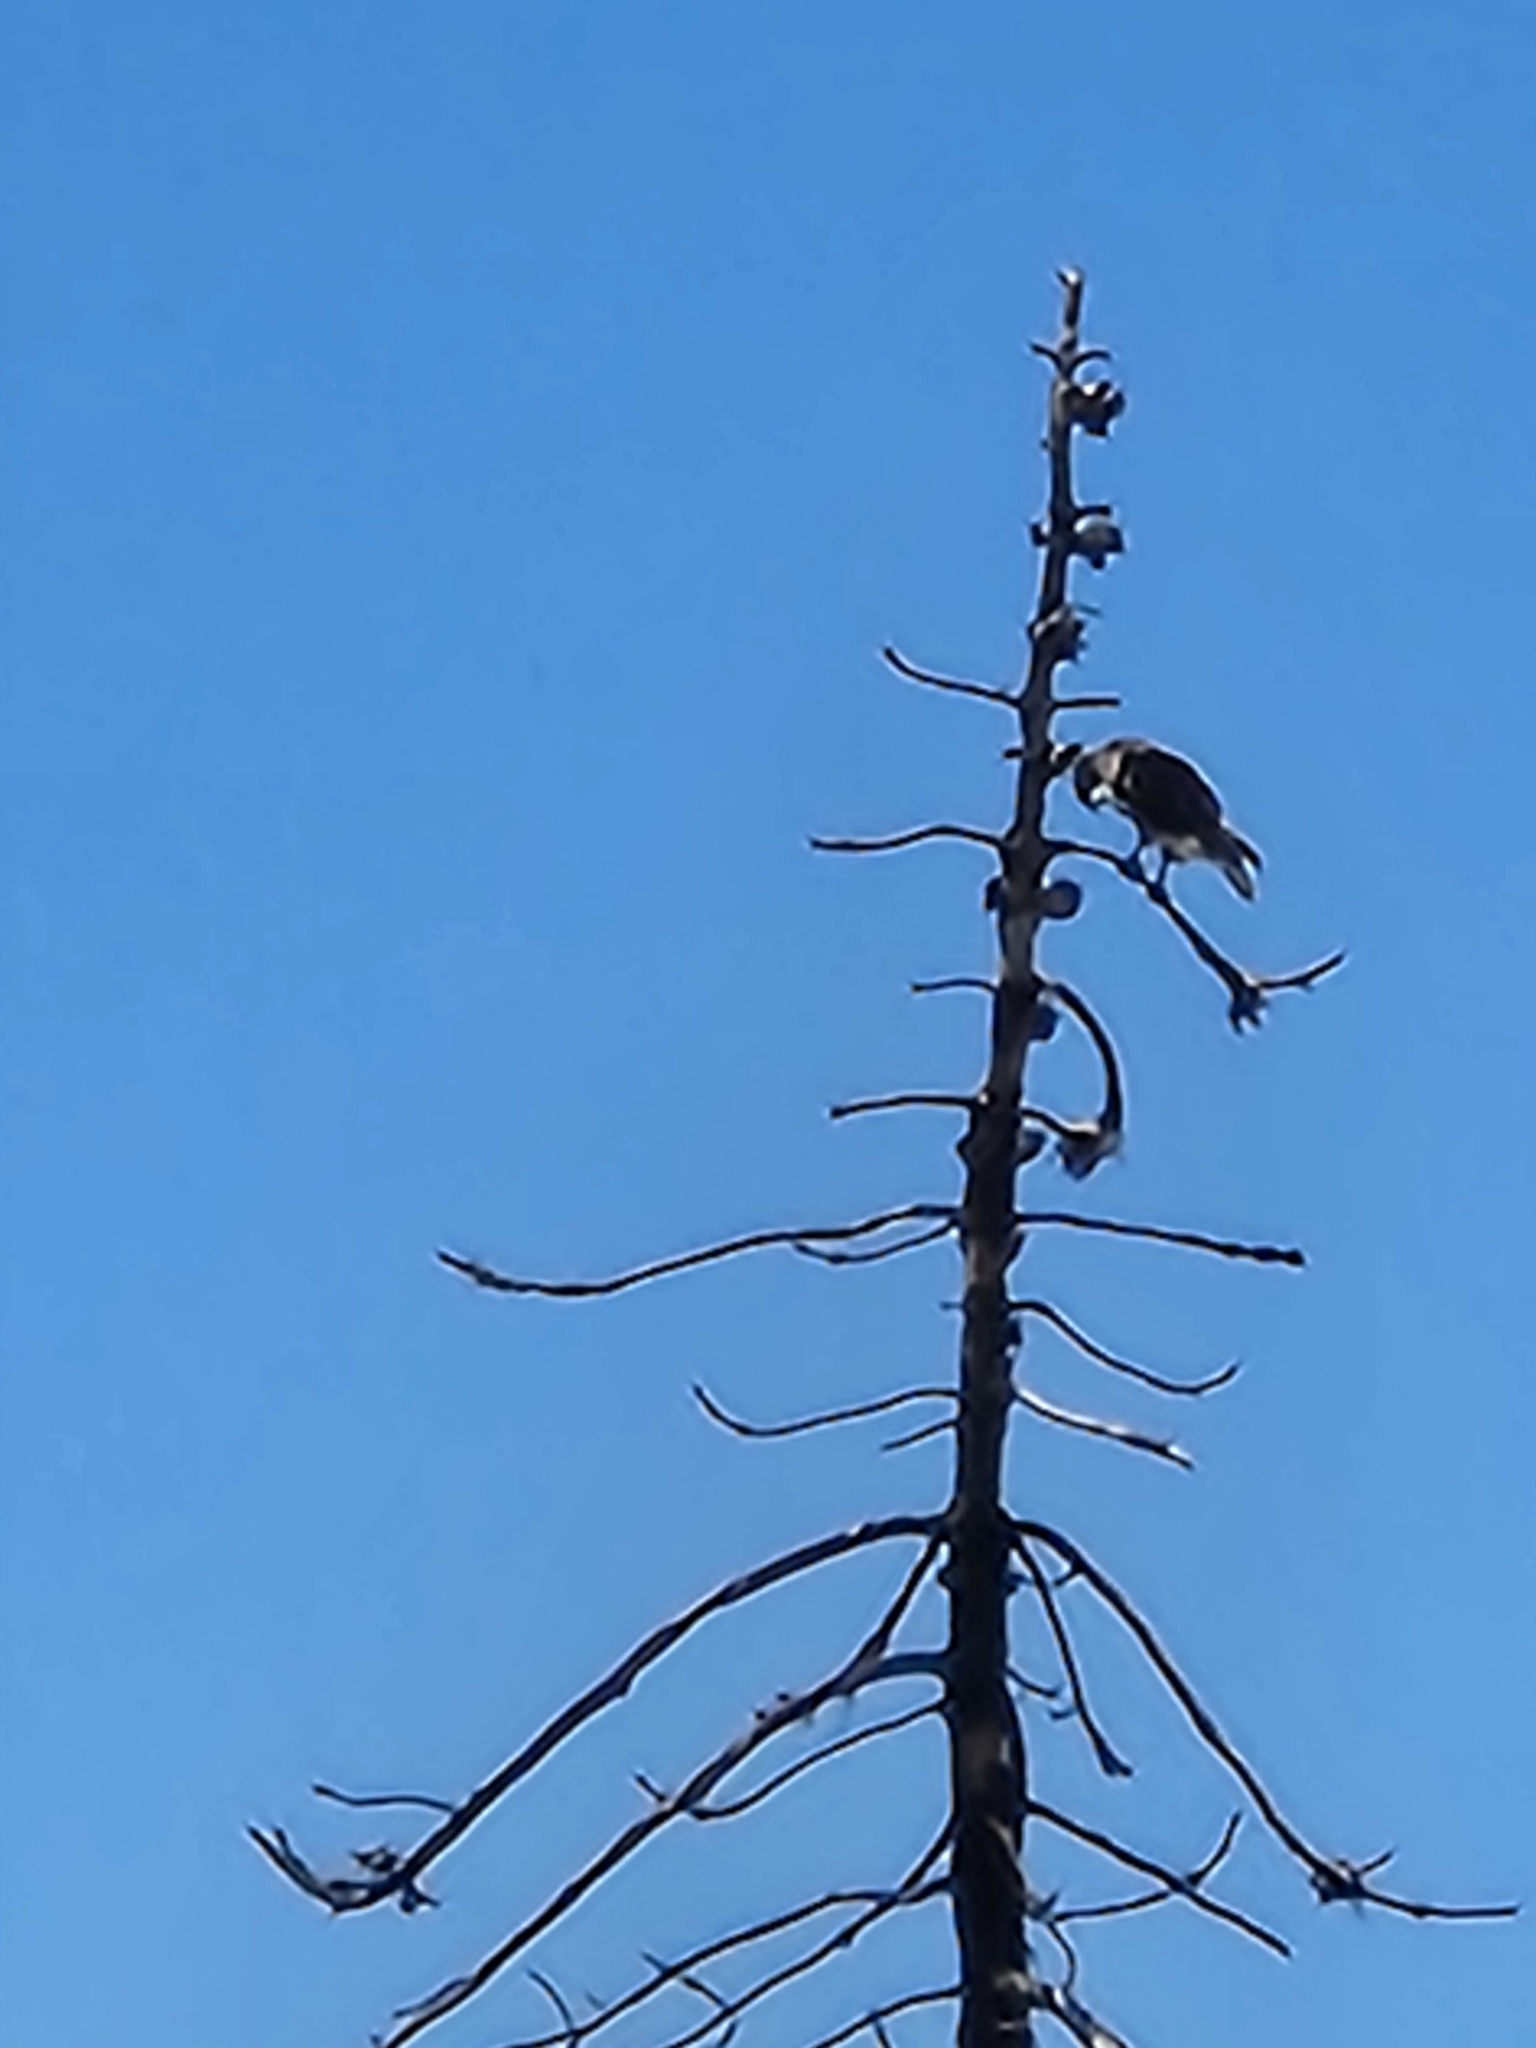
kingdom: Animalia
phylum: Chordata
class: Aves
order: Accipitriformes
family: Accipitridae
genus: Buteo
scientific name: Buteo jamaicensis
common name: Red-tailed hawk
